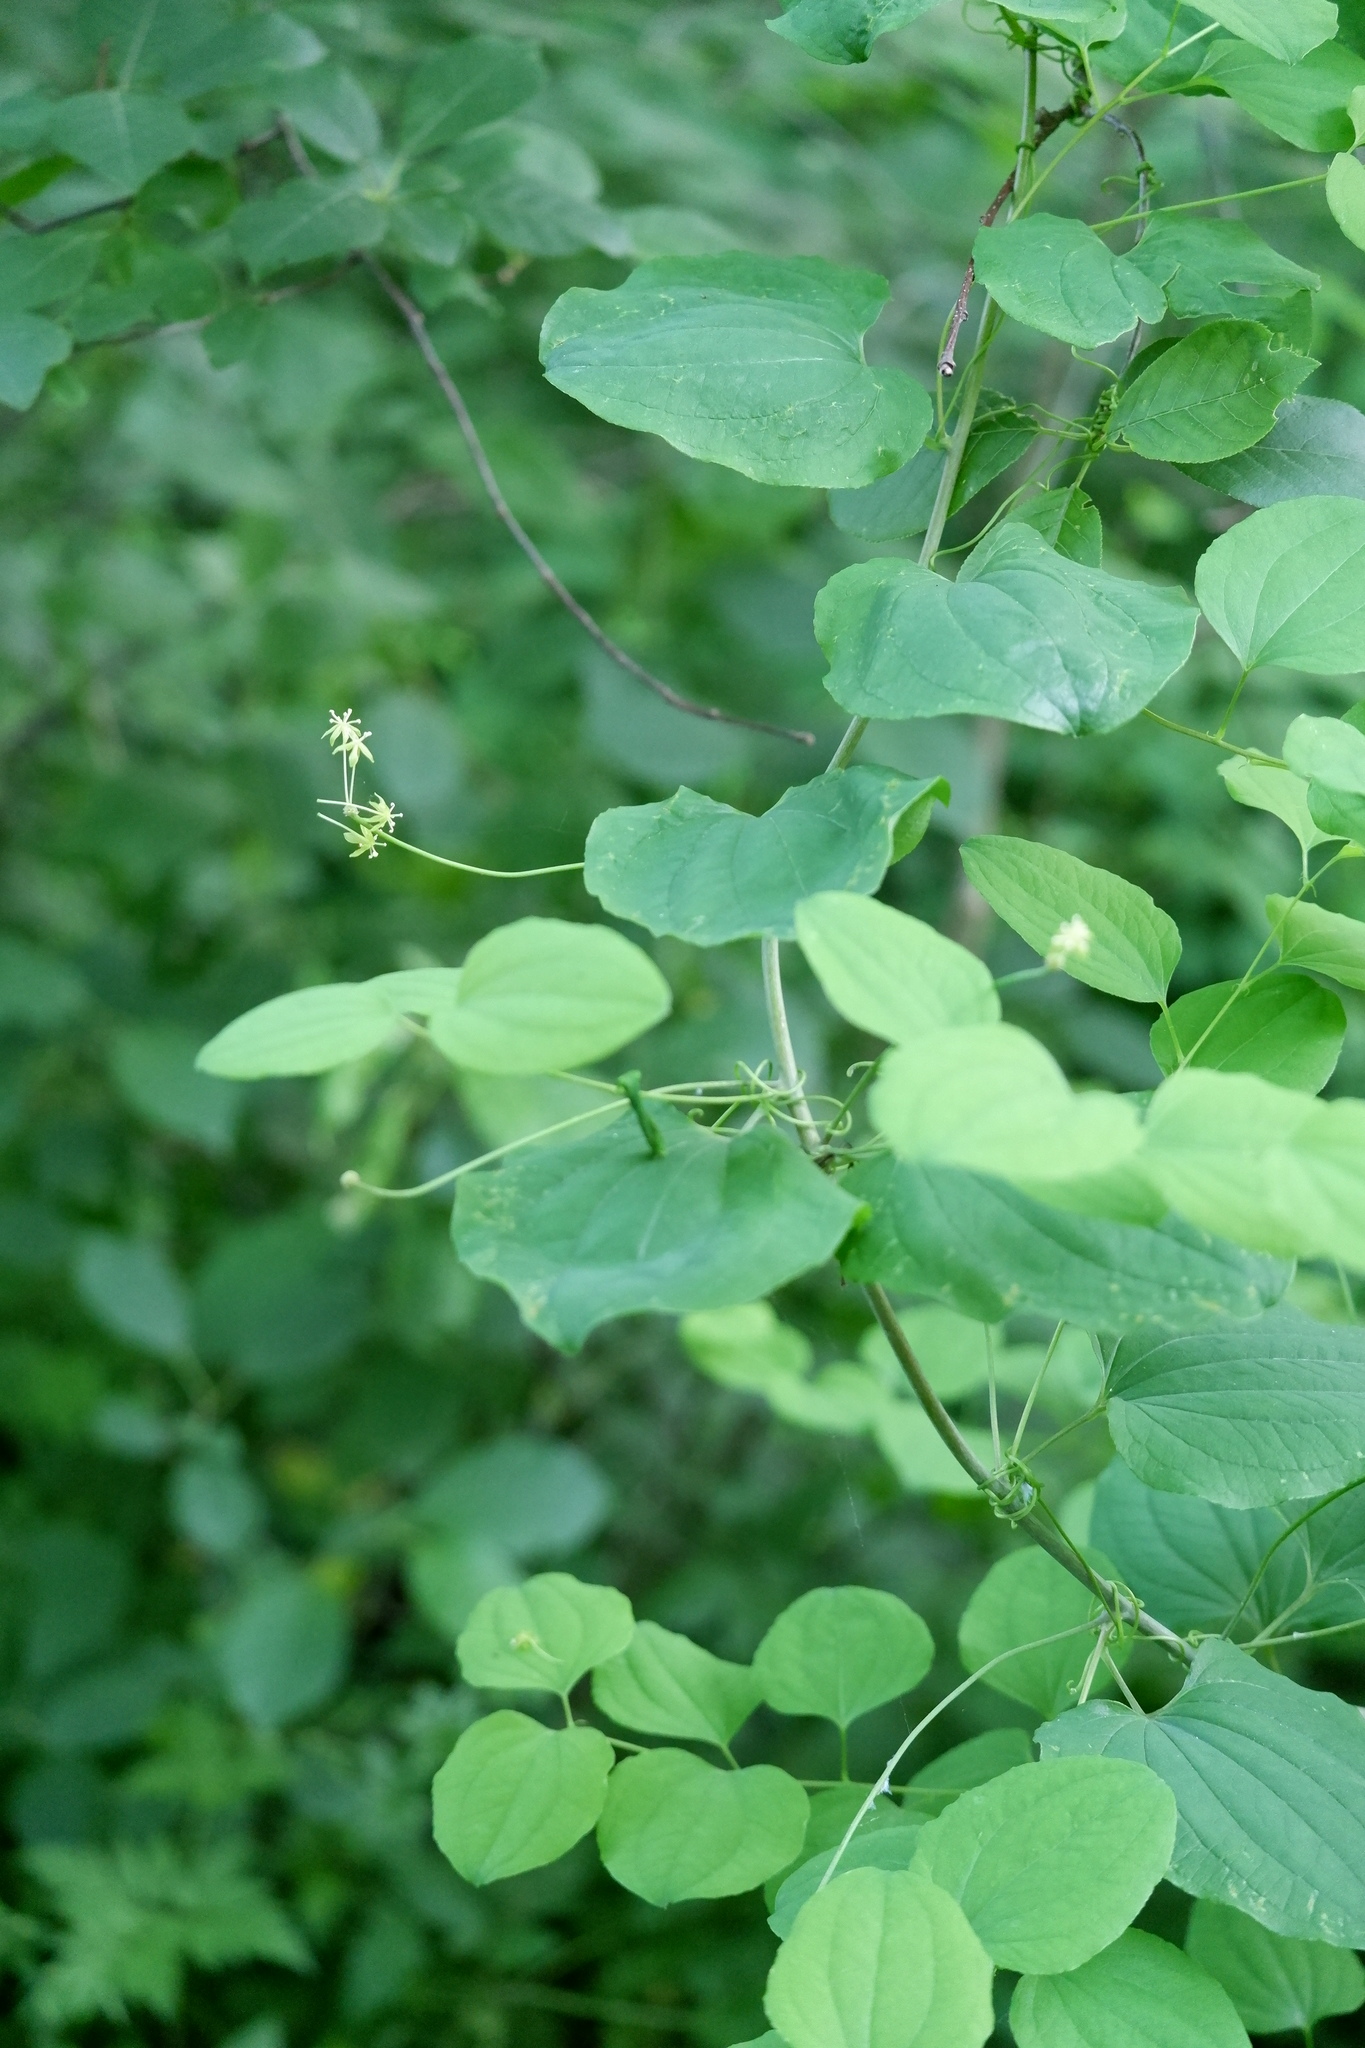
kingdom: Plantae
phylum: Tracheophyta
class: Liliopsida
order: Liliales
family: Smilacaceae
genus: Smilax
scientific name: Smilax herbacea
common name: Jacob's-ladder
